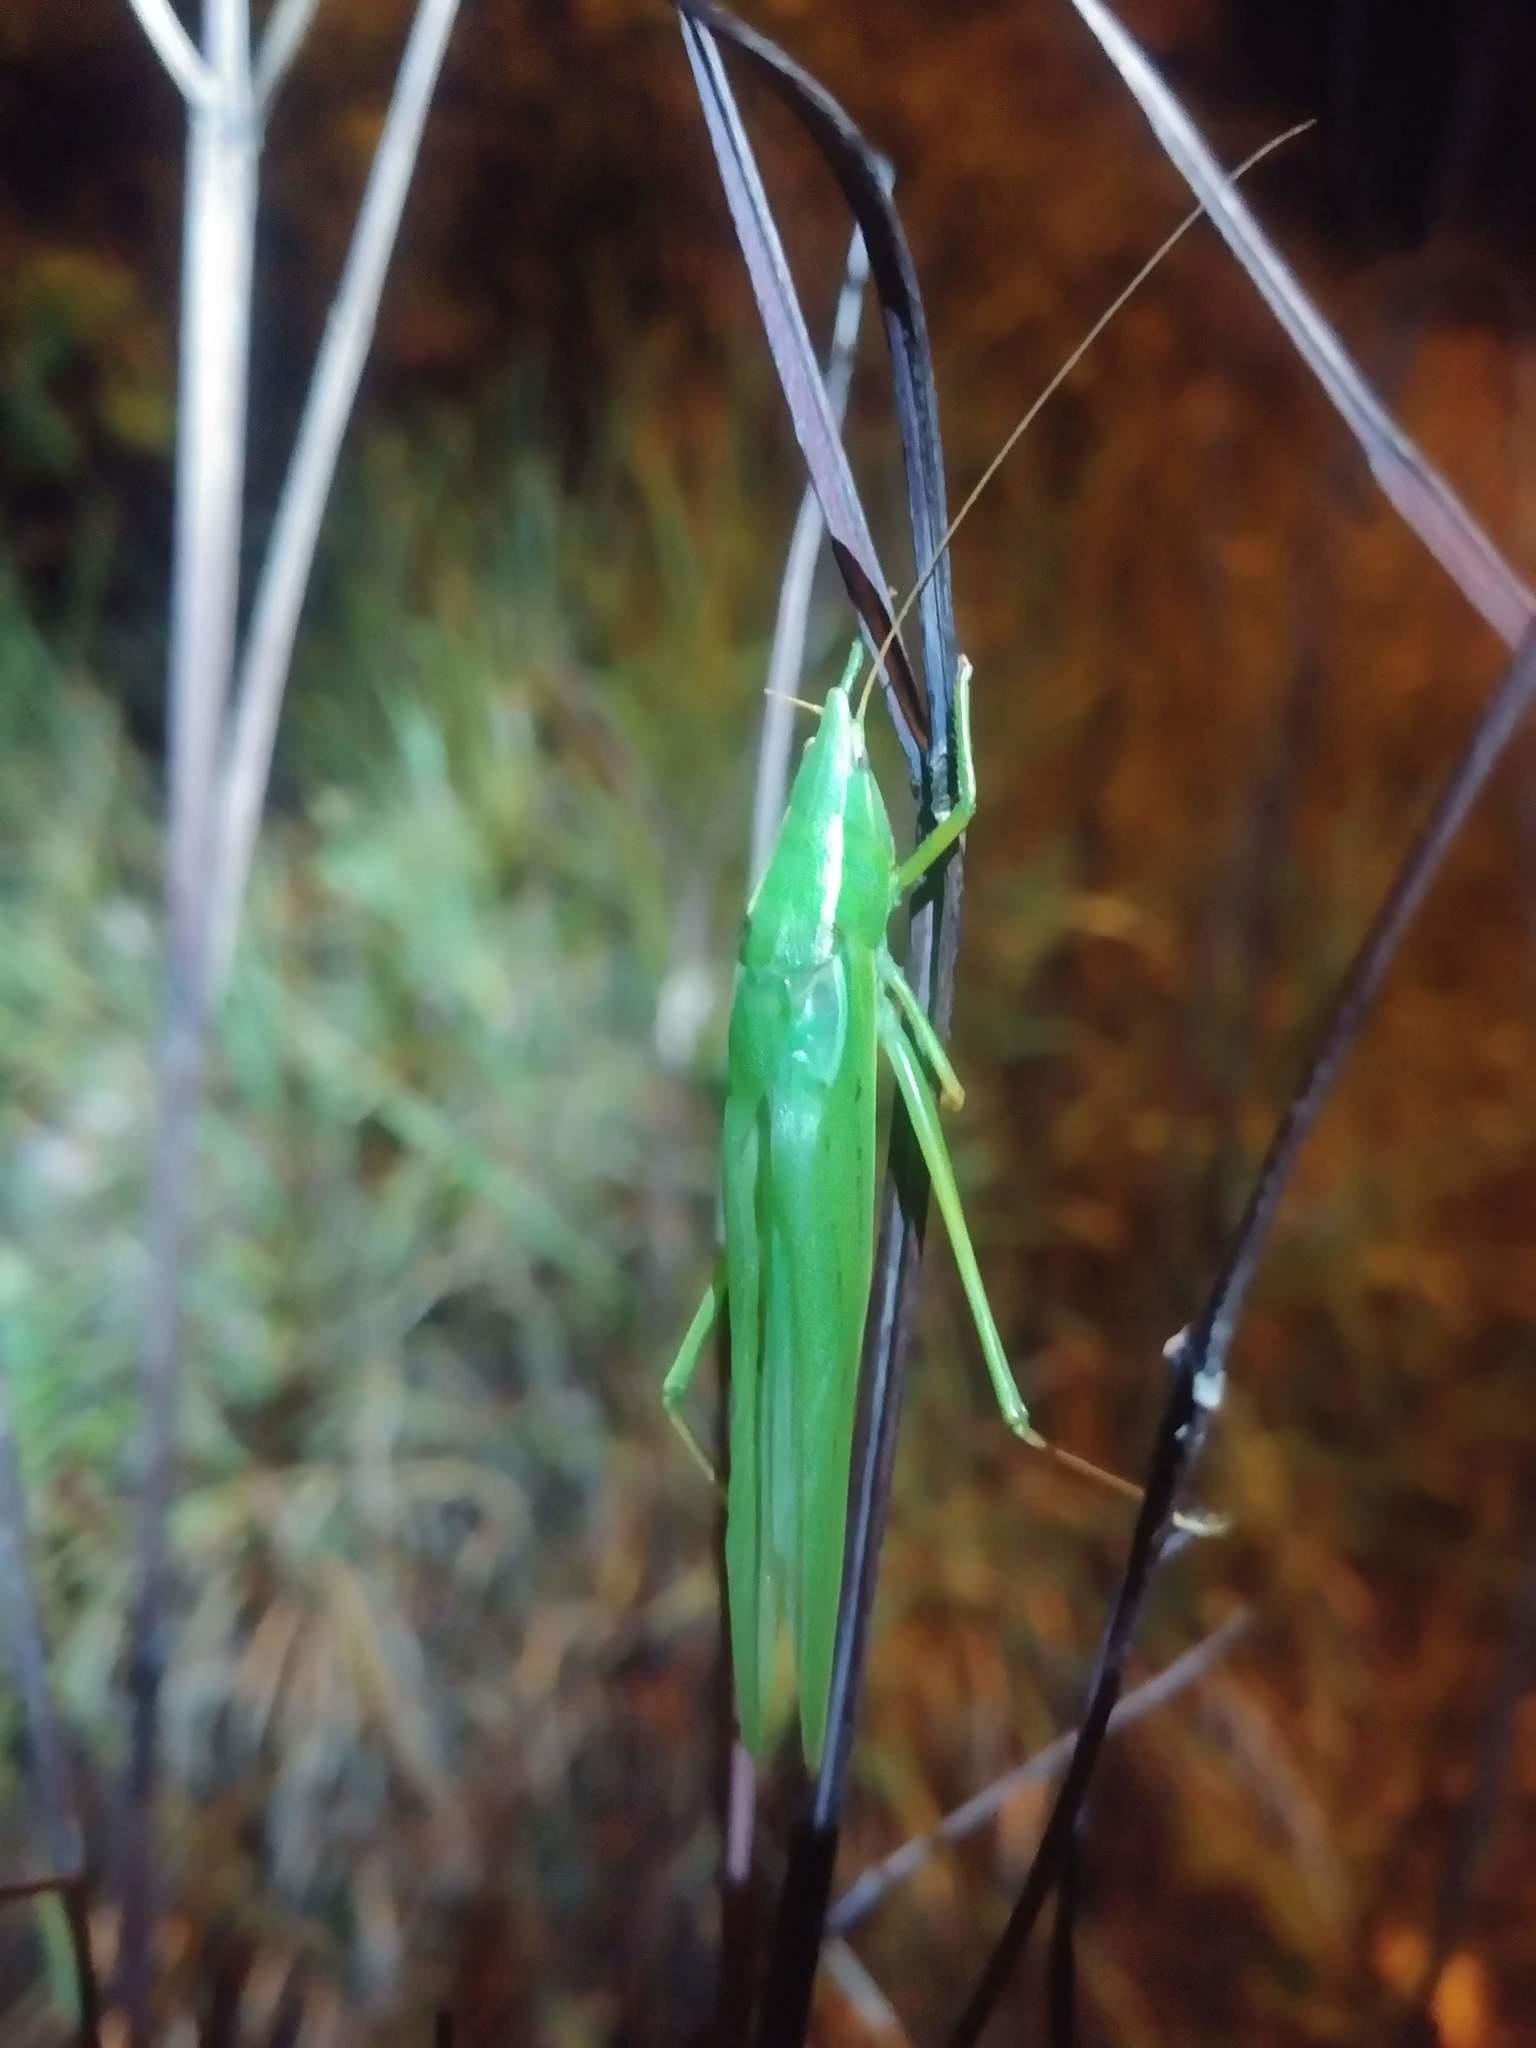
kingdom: Animalia
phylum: Arthropoda
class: Insecta
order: Orthoptera
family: Tettigoniidae
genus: Neoconocephalus
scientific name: Neoconocephalus ensiger
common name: Swordbearer
